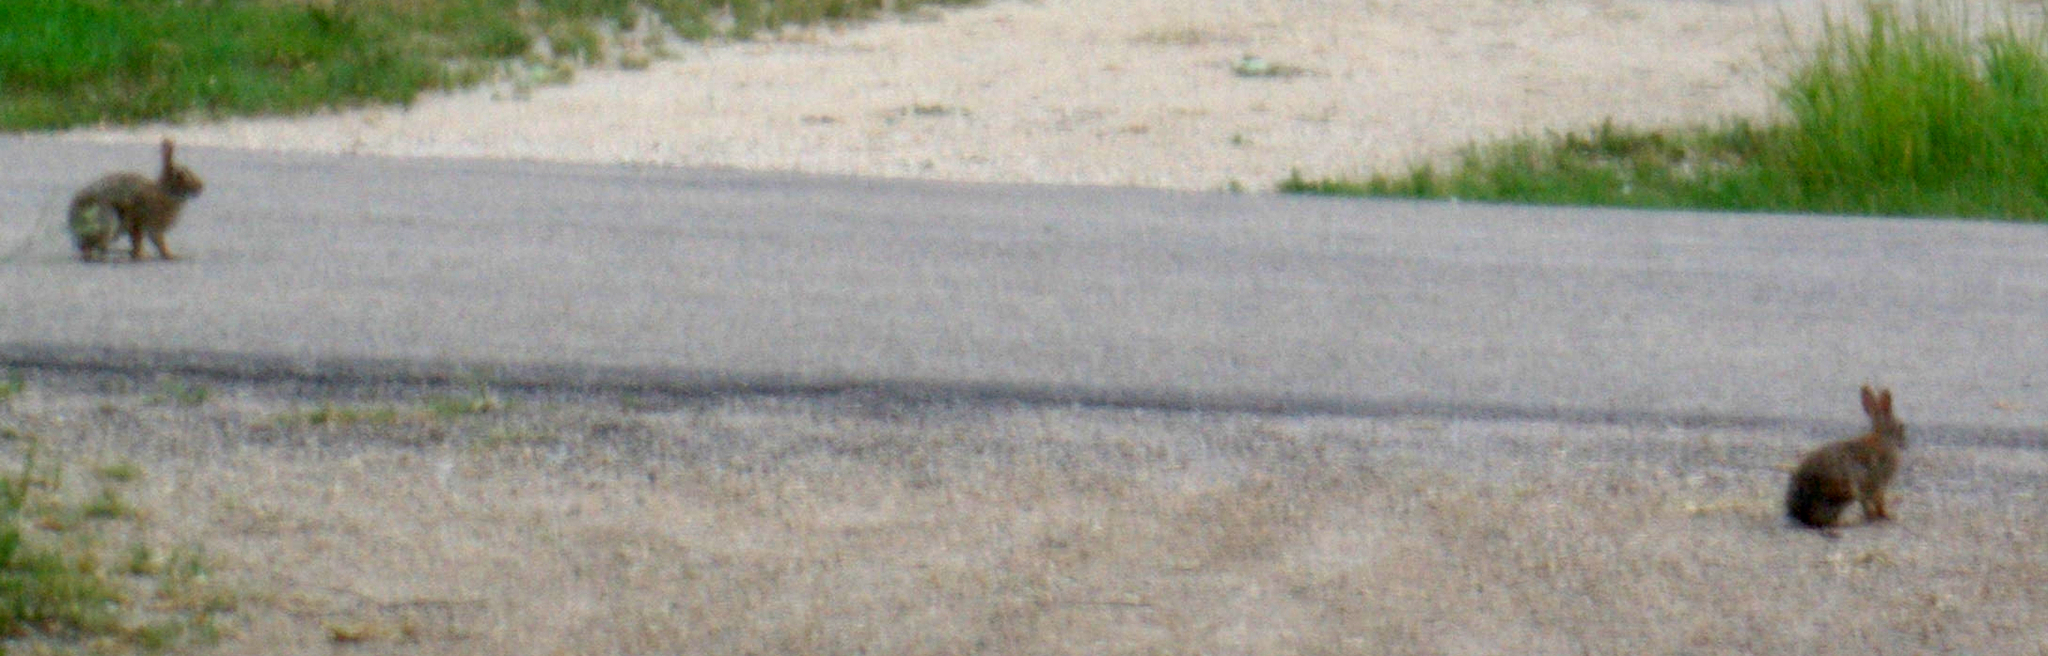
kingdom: Animalia
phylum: Chordata
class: Mammalia
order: Lagomorpha
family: Leporidae
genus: Sylvilagus
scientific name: Sylvilagus floridanus
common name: Eastern cottontail
